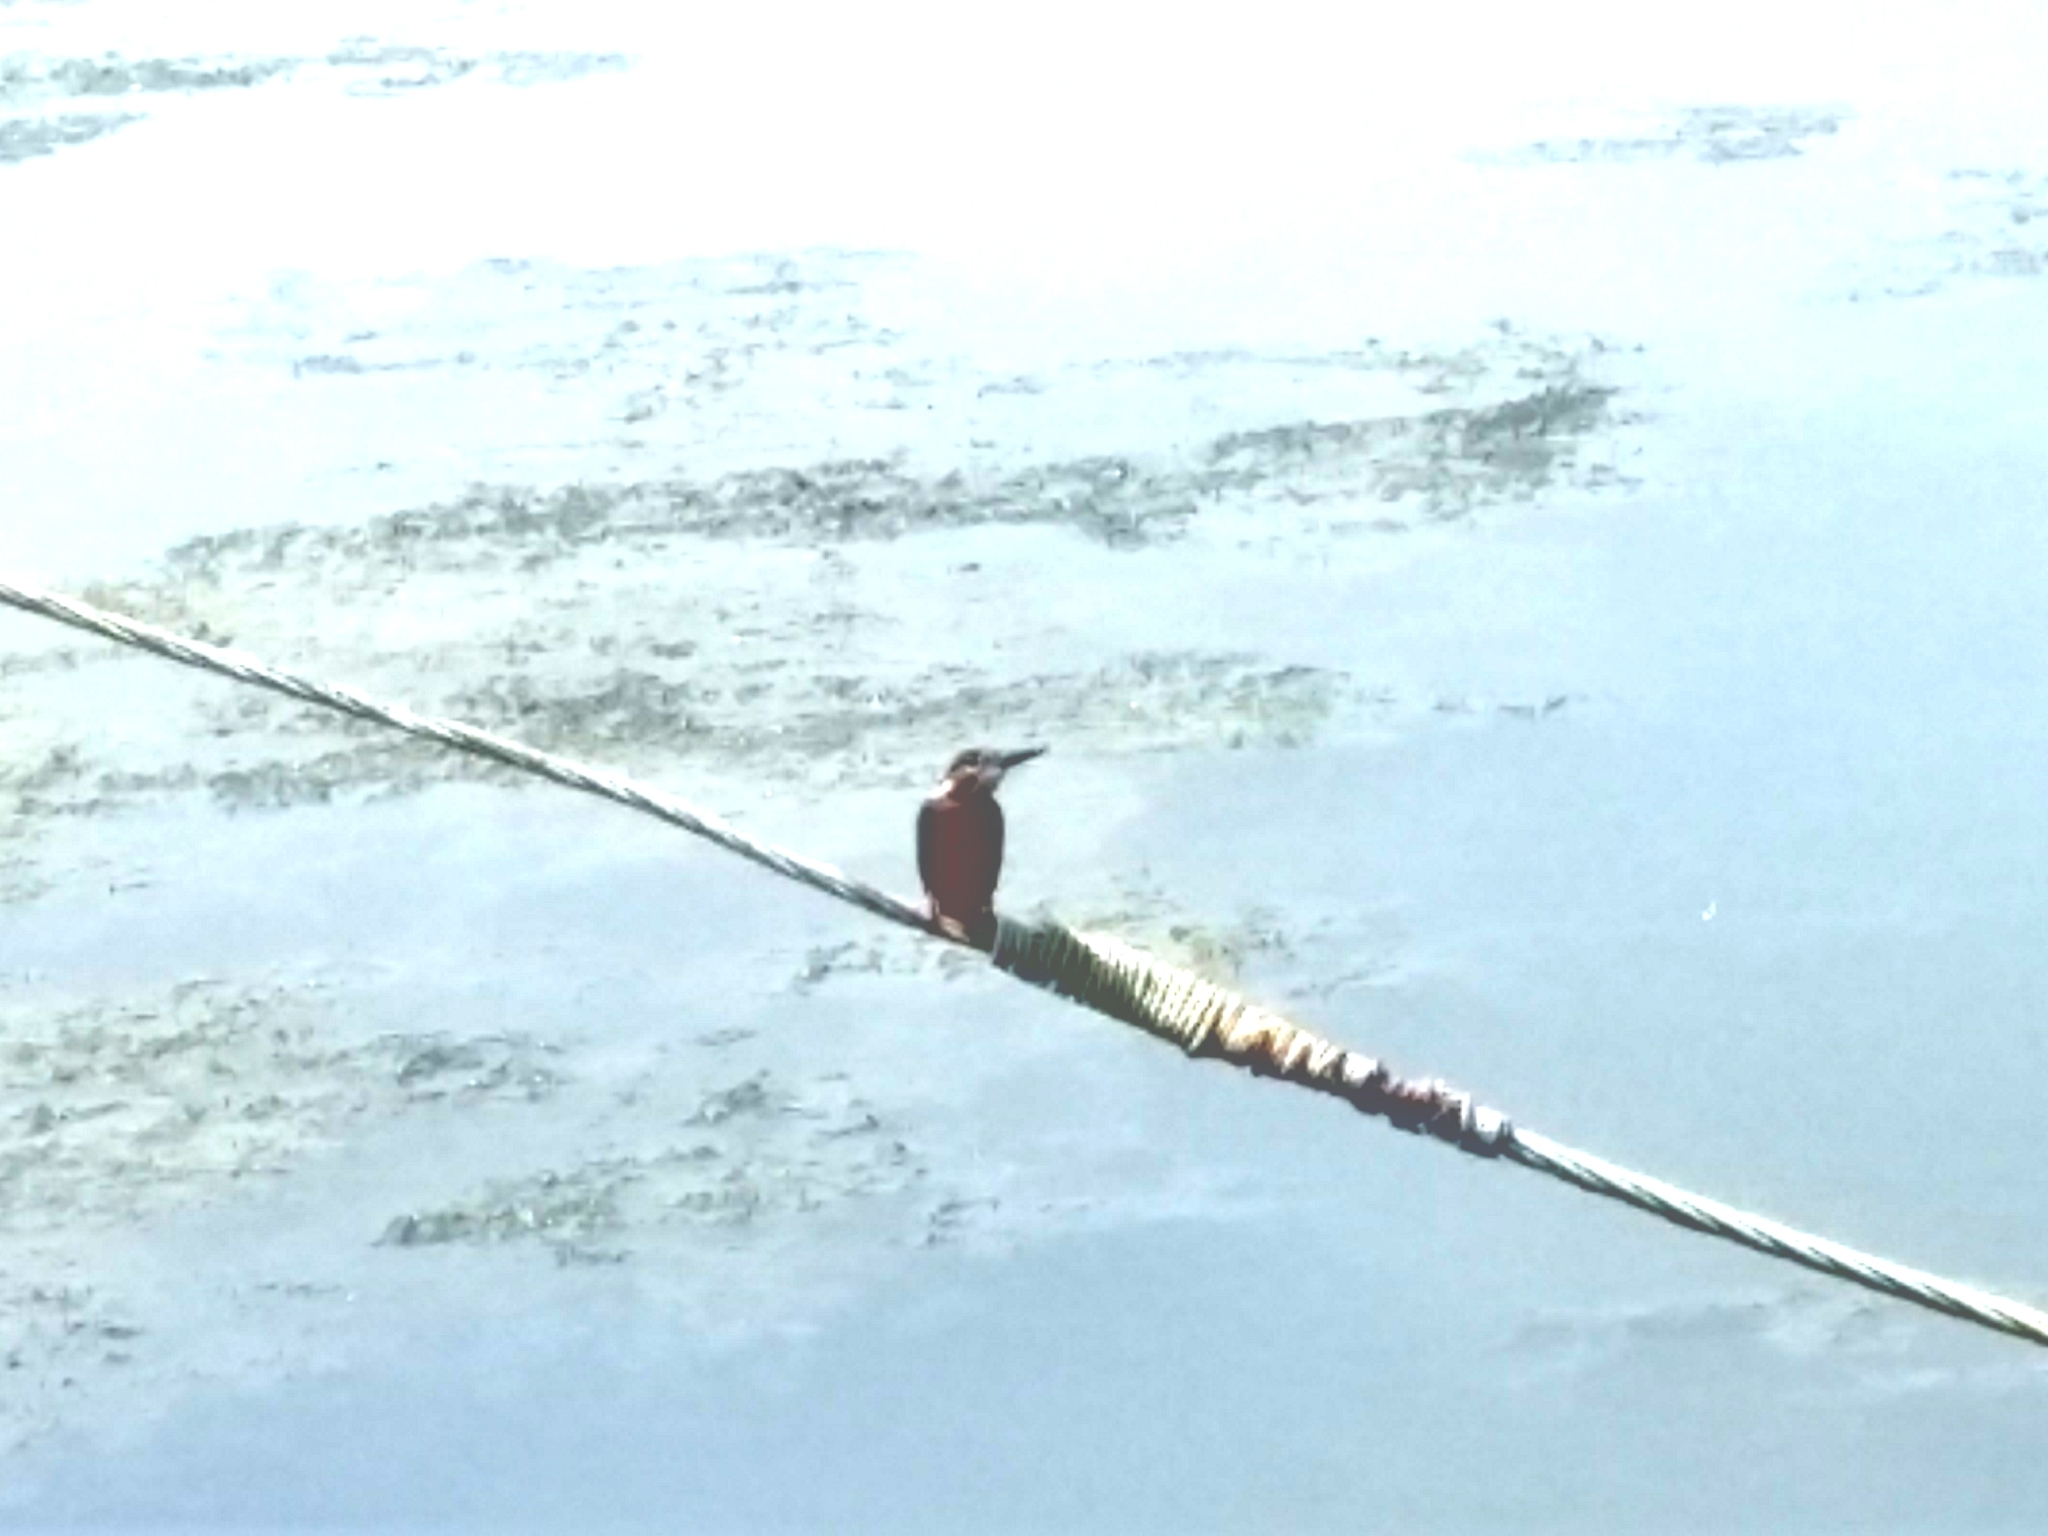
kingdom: Animalia
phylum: Chordata
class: Aves
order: Coraciiformes
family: Alcedinidae
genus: Alcedo
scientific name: Alcedo atthis
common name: Common kingfisher
